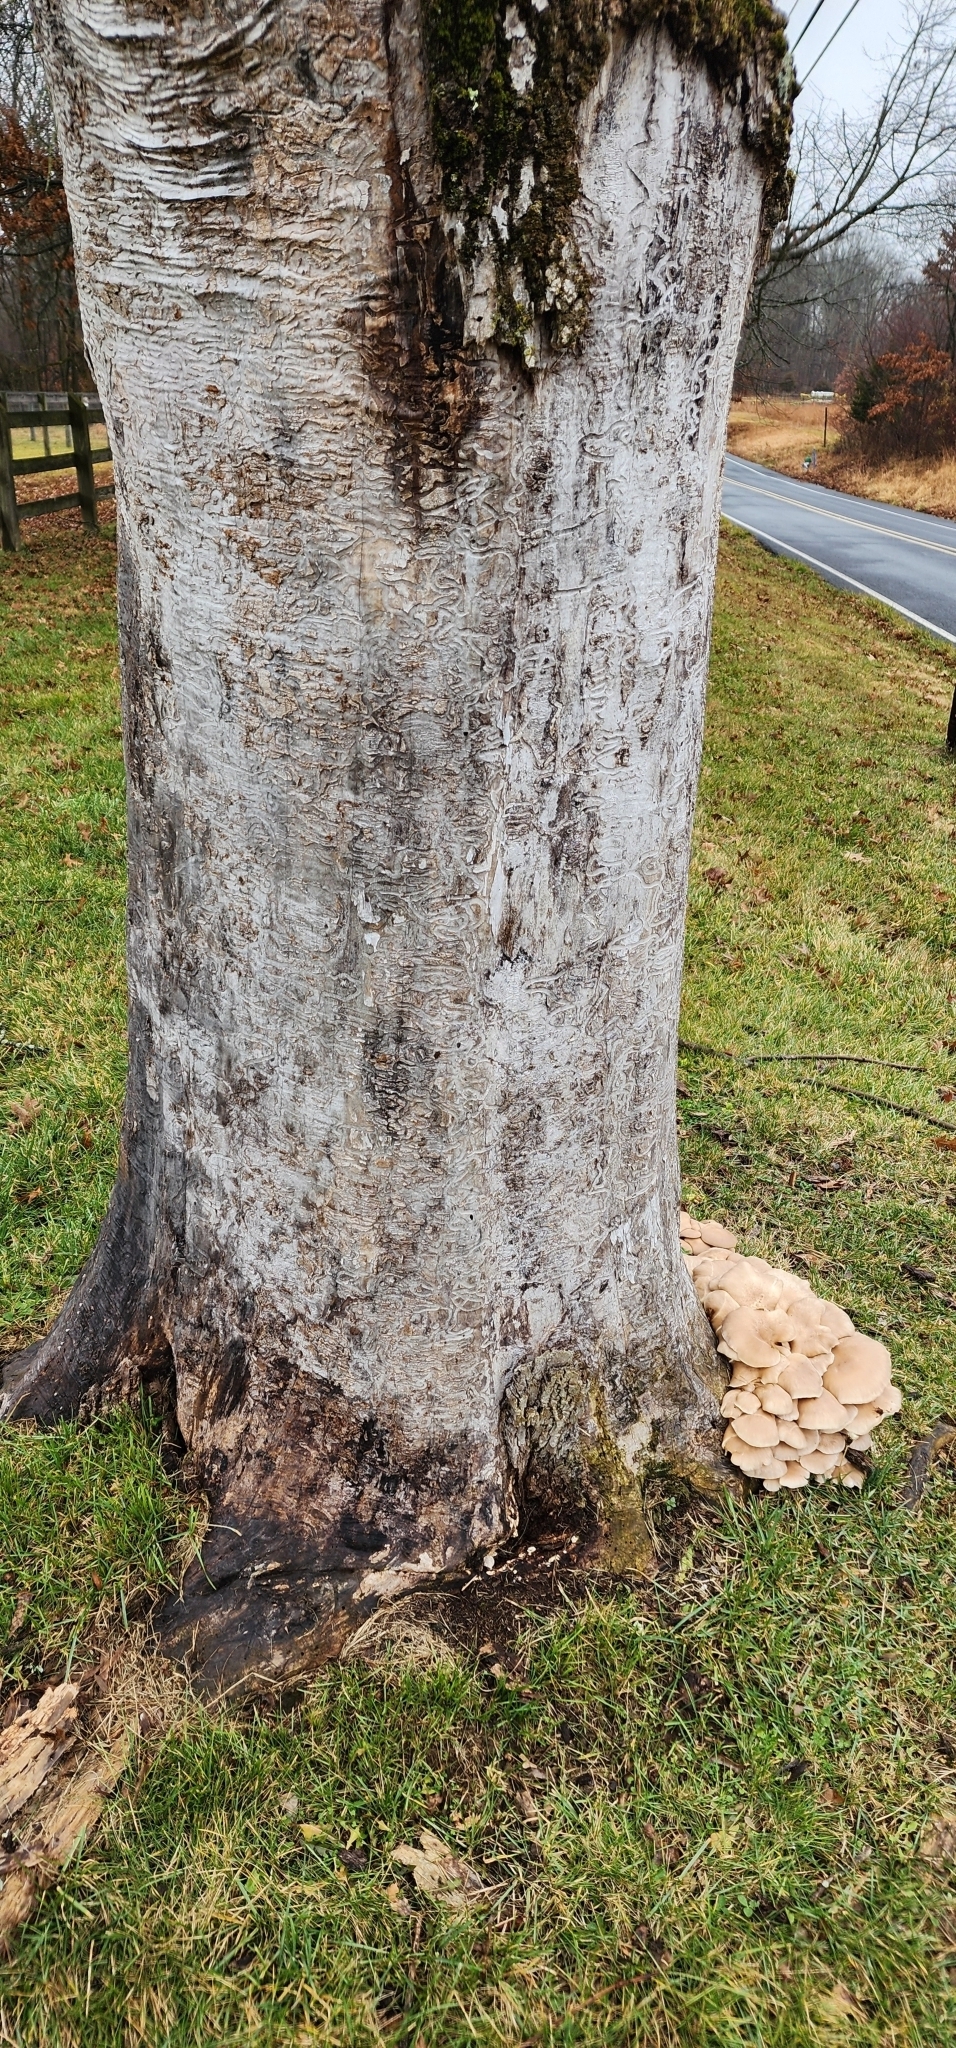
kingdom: Animalia
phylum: Arthropoda
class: Insecta
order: Coleoptera
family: Buprestidae
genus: Agrilus
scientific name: Agrilus planipennis
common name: Emerald ash borer
